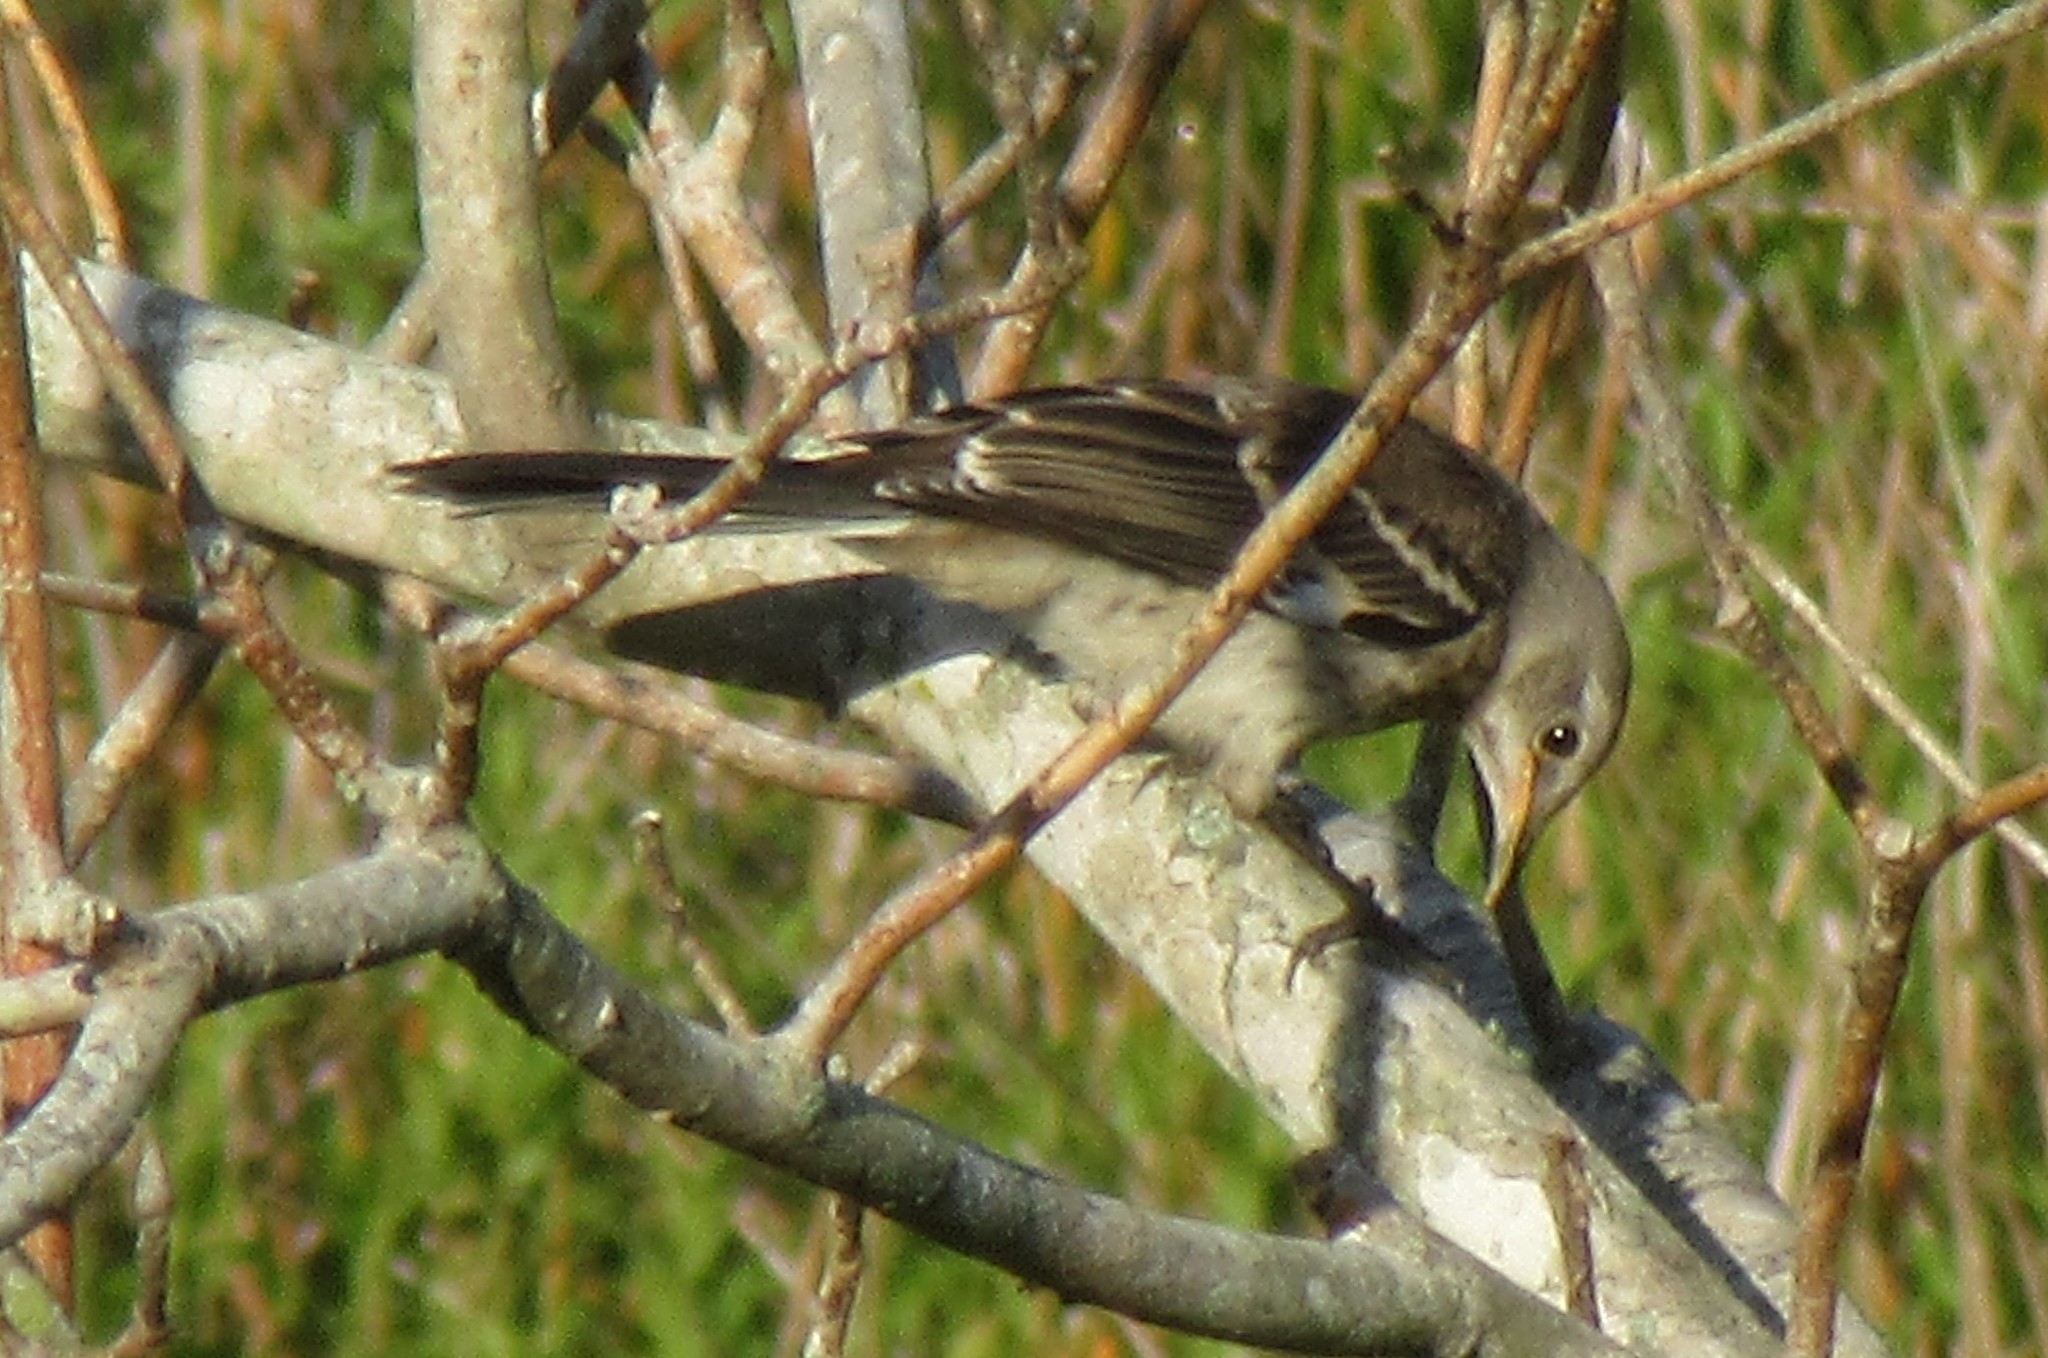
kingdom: Animalia
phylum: Chordata
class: Aves
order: Passeriformes
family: Mimidae
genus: Mimus
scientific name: Mimus polyglottos
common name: Northern mockingbird
